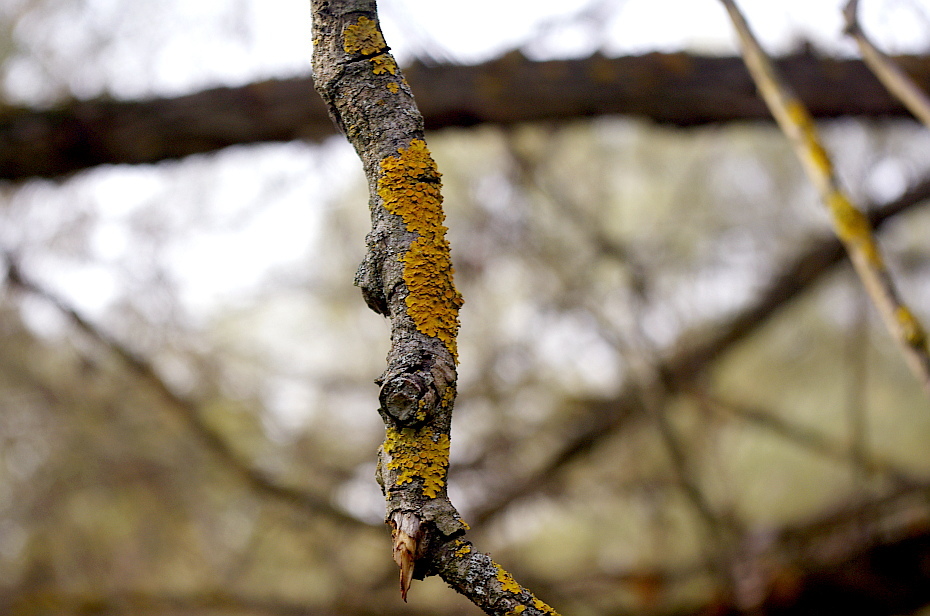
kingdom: Fungi
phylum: Ascomycota
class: Lecanoromycetes
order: Teloschistales
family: Teloschistaceae
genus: Xanthoria
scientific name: Xanthoria parietina
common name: Common orange lichen
